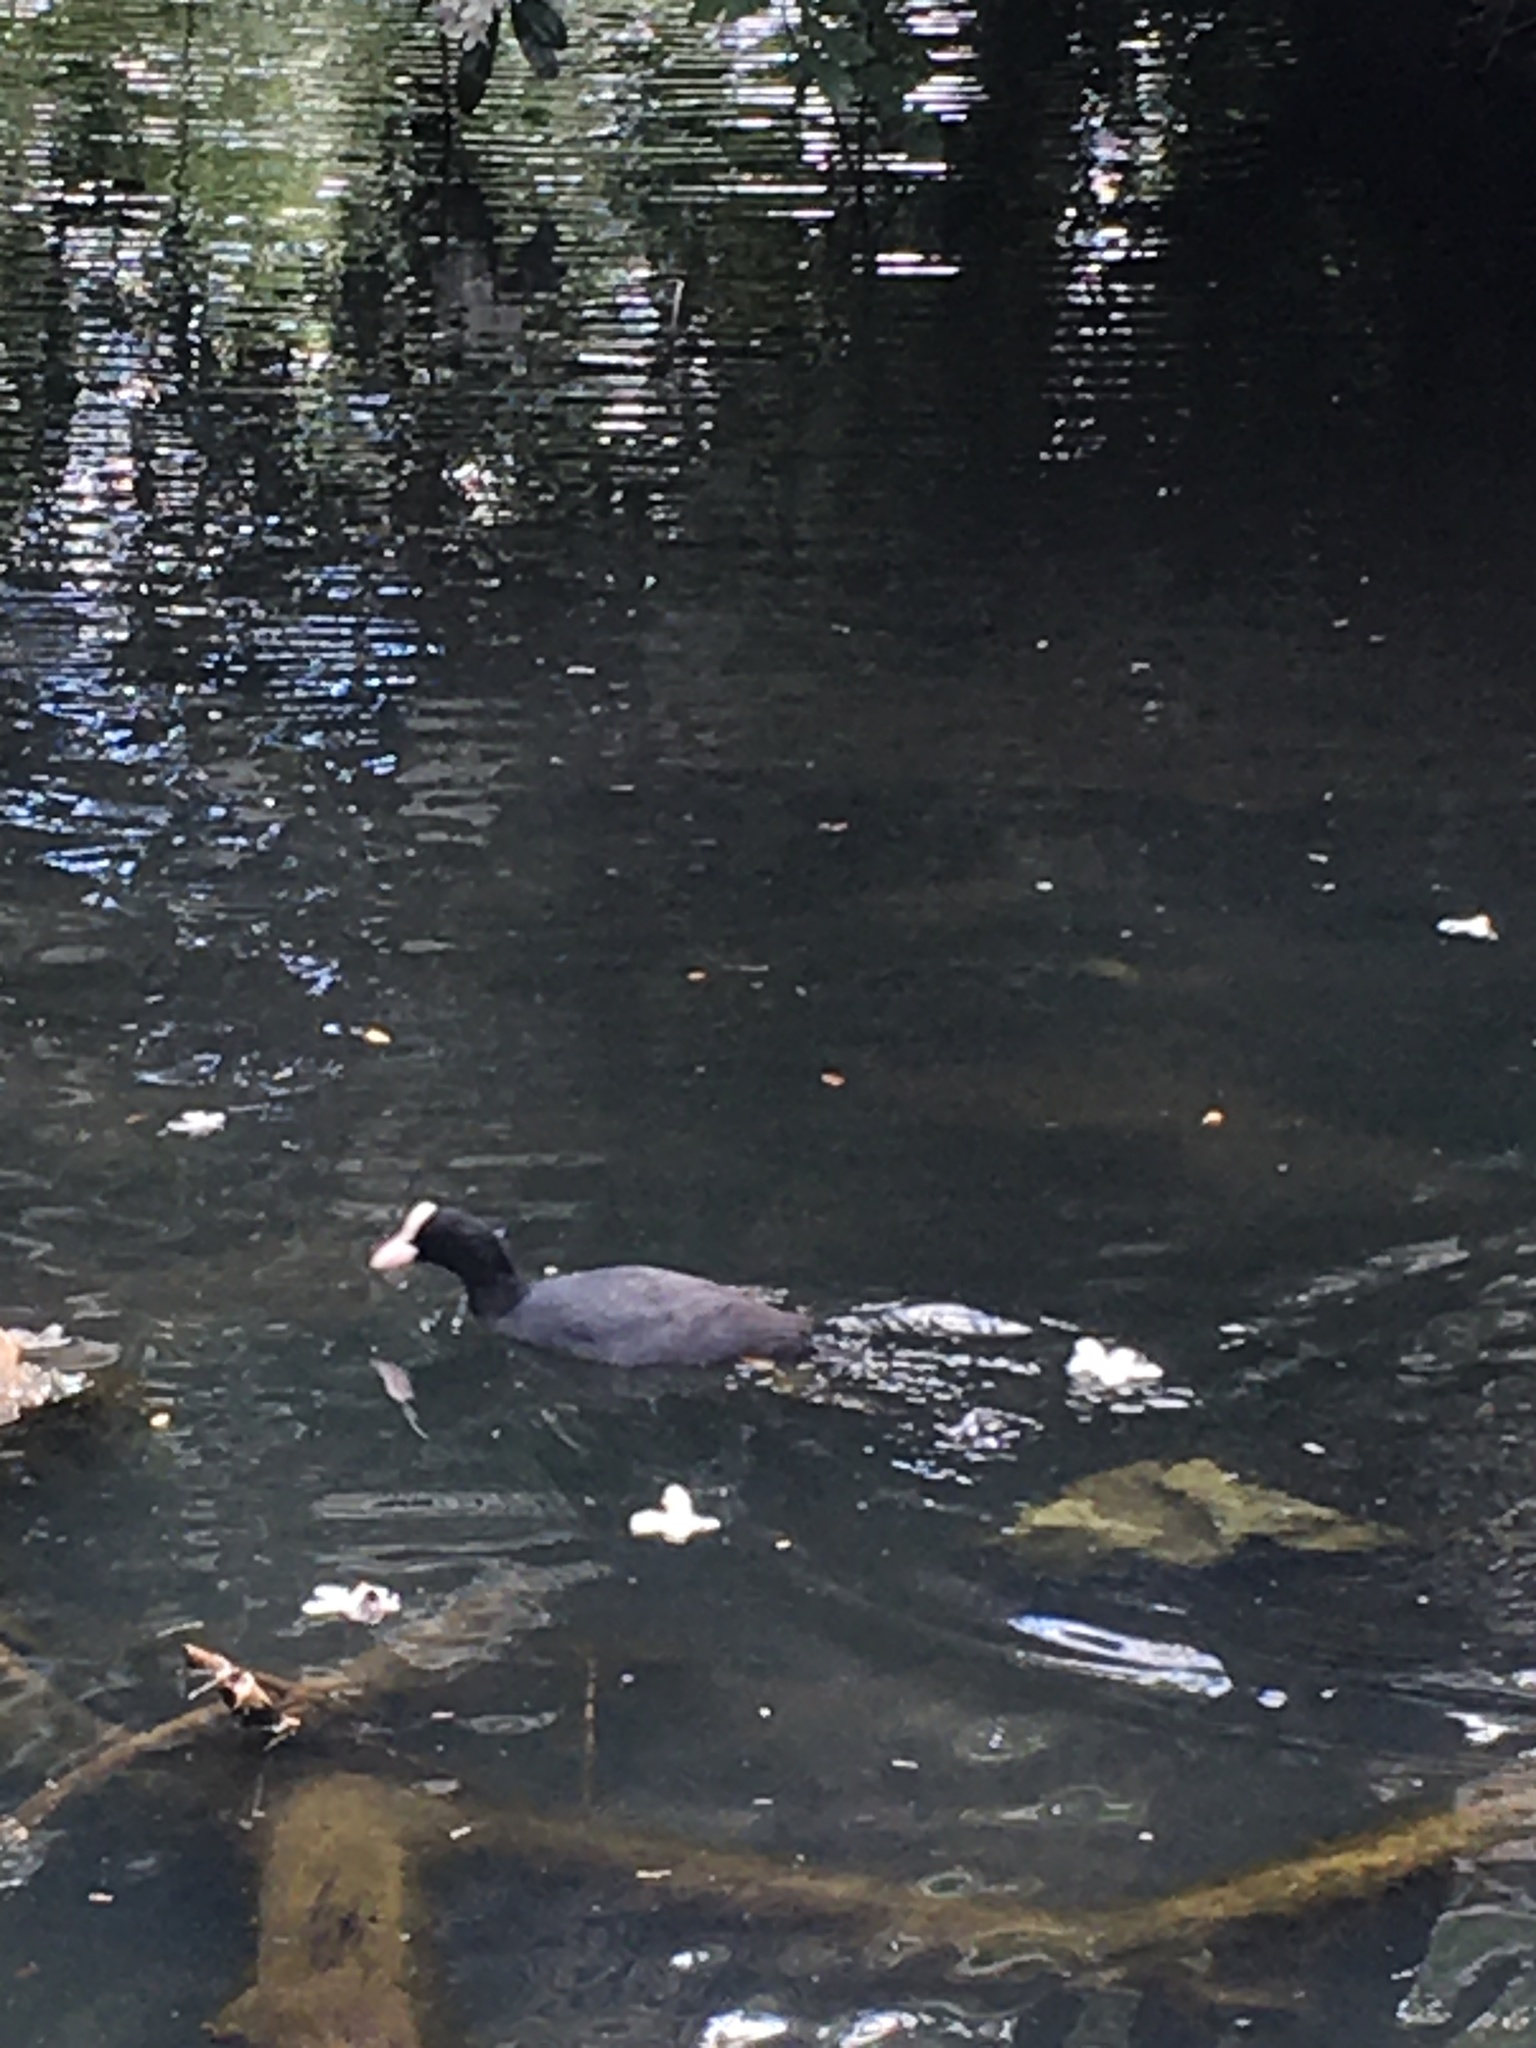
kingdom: Animalia
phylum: Chordata
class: Aves
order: Gruiformes
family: Rallidae
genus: Fulica
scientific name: Fulica atra
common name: Eurasian coot
